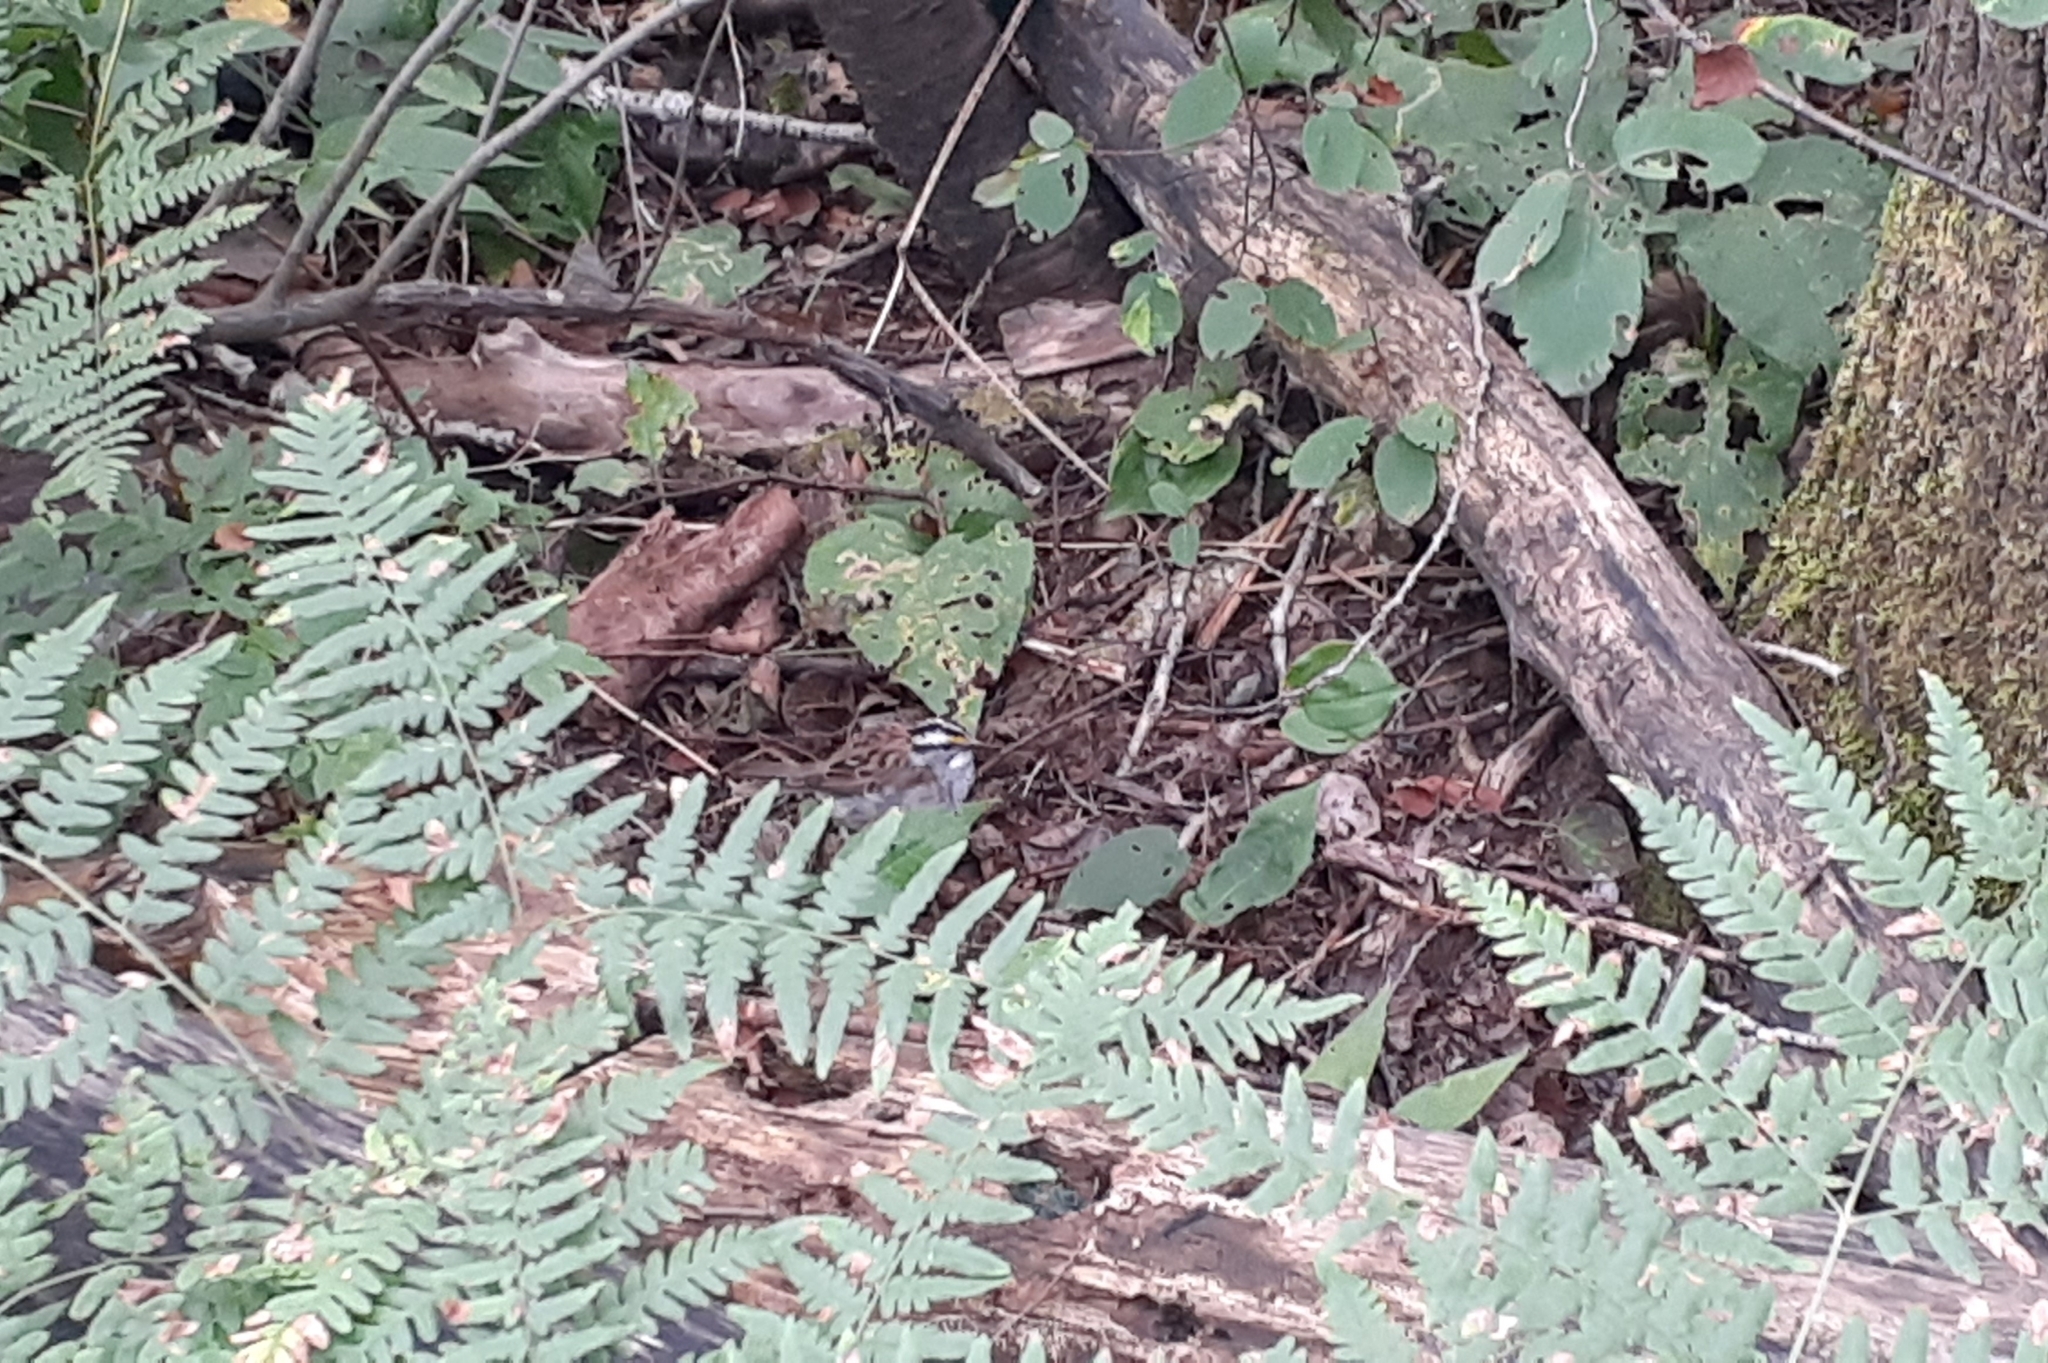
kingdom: Animalia
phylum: Chordata
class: Aves
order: Passeriformes
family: Passerellidae
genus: Zonotrichia
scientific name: Zonotrichia albicollis
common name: White-throated sparrow
